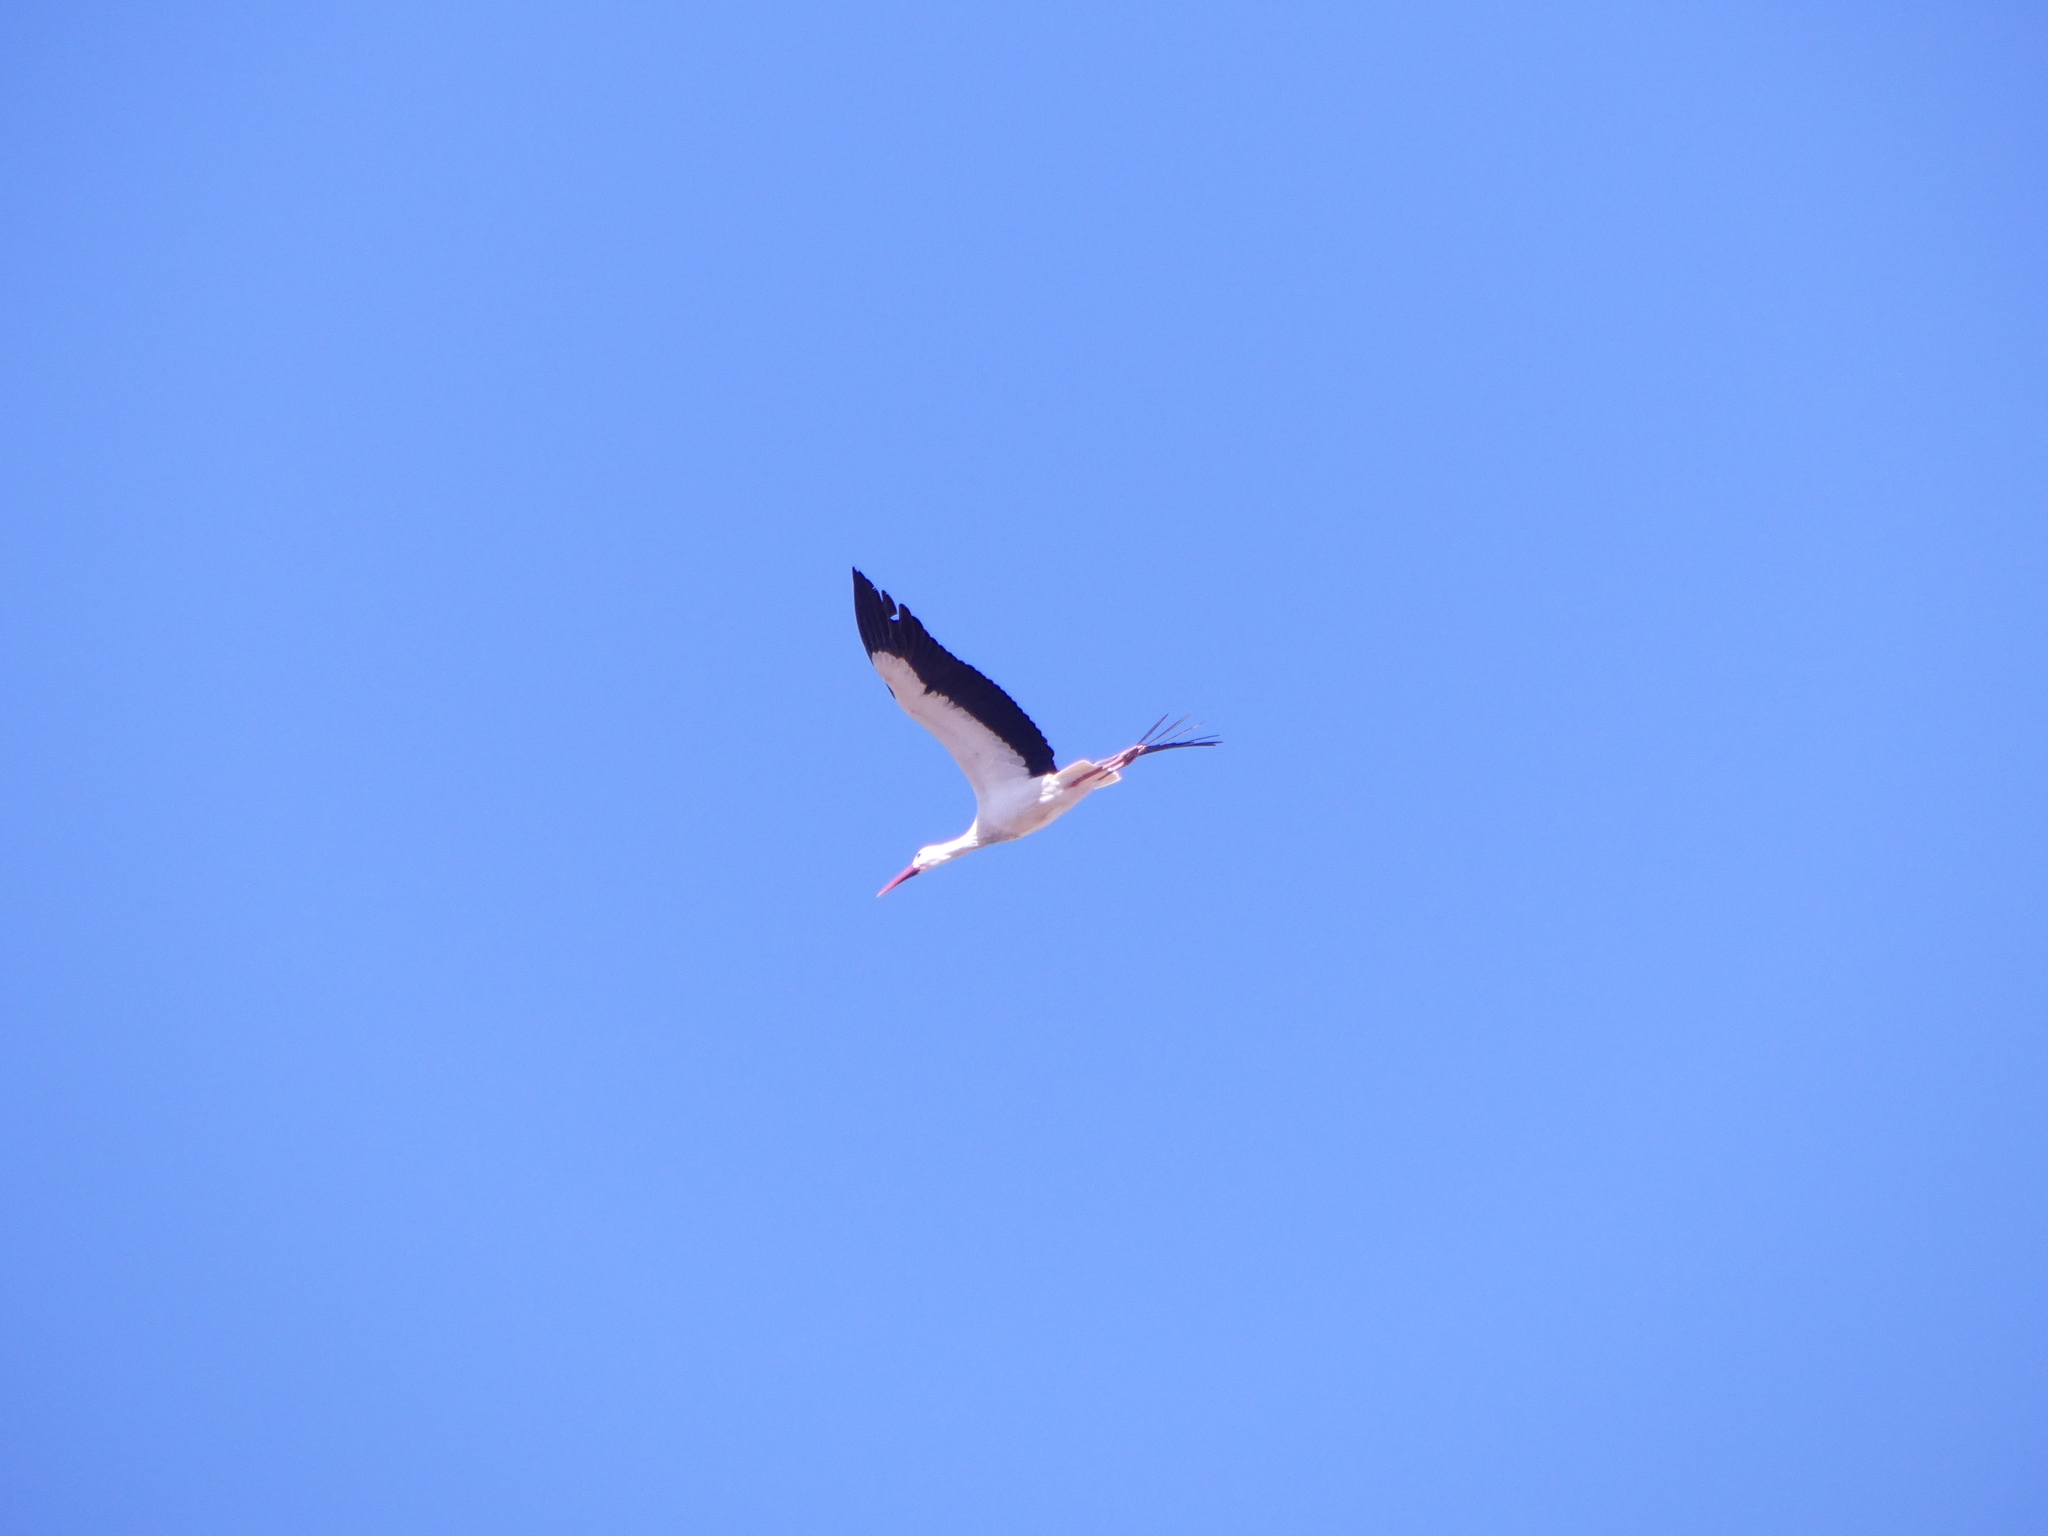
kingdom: Animalia
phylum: Chordata
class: Aves
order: Ciconiiformes
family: Ciconiidae
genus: Ciconia
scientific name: Ciconia ciconia
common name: White stork
